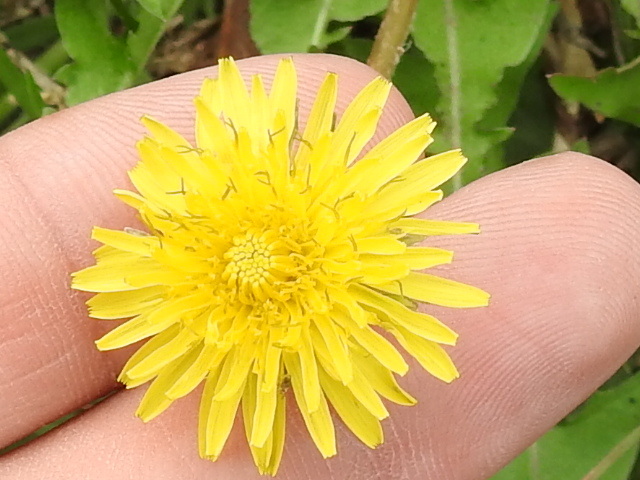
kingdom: Plantae
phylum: Tracheophyta
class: Magnoliopsida
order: Asterales
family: Asteraceae
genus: Taraxacum
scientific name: Taraxacum officinale
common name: Common dandelion
